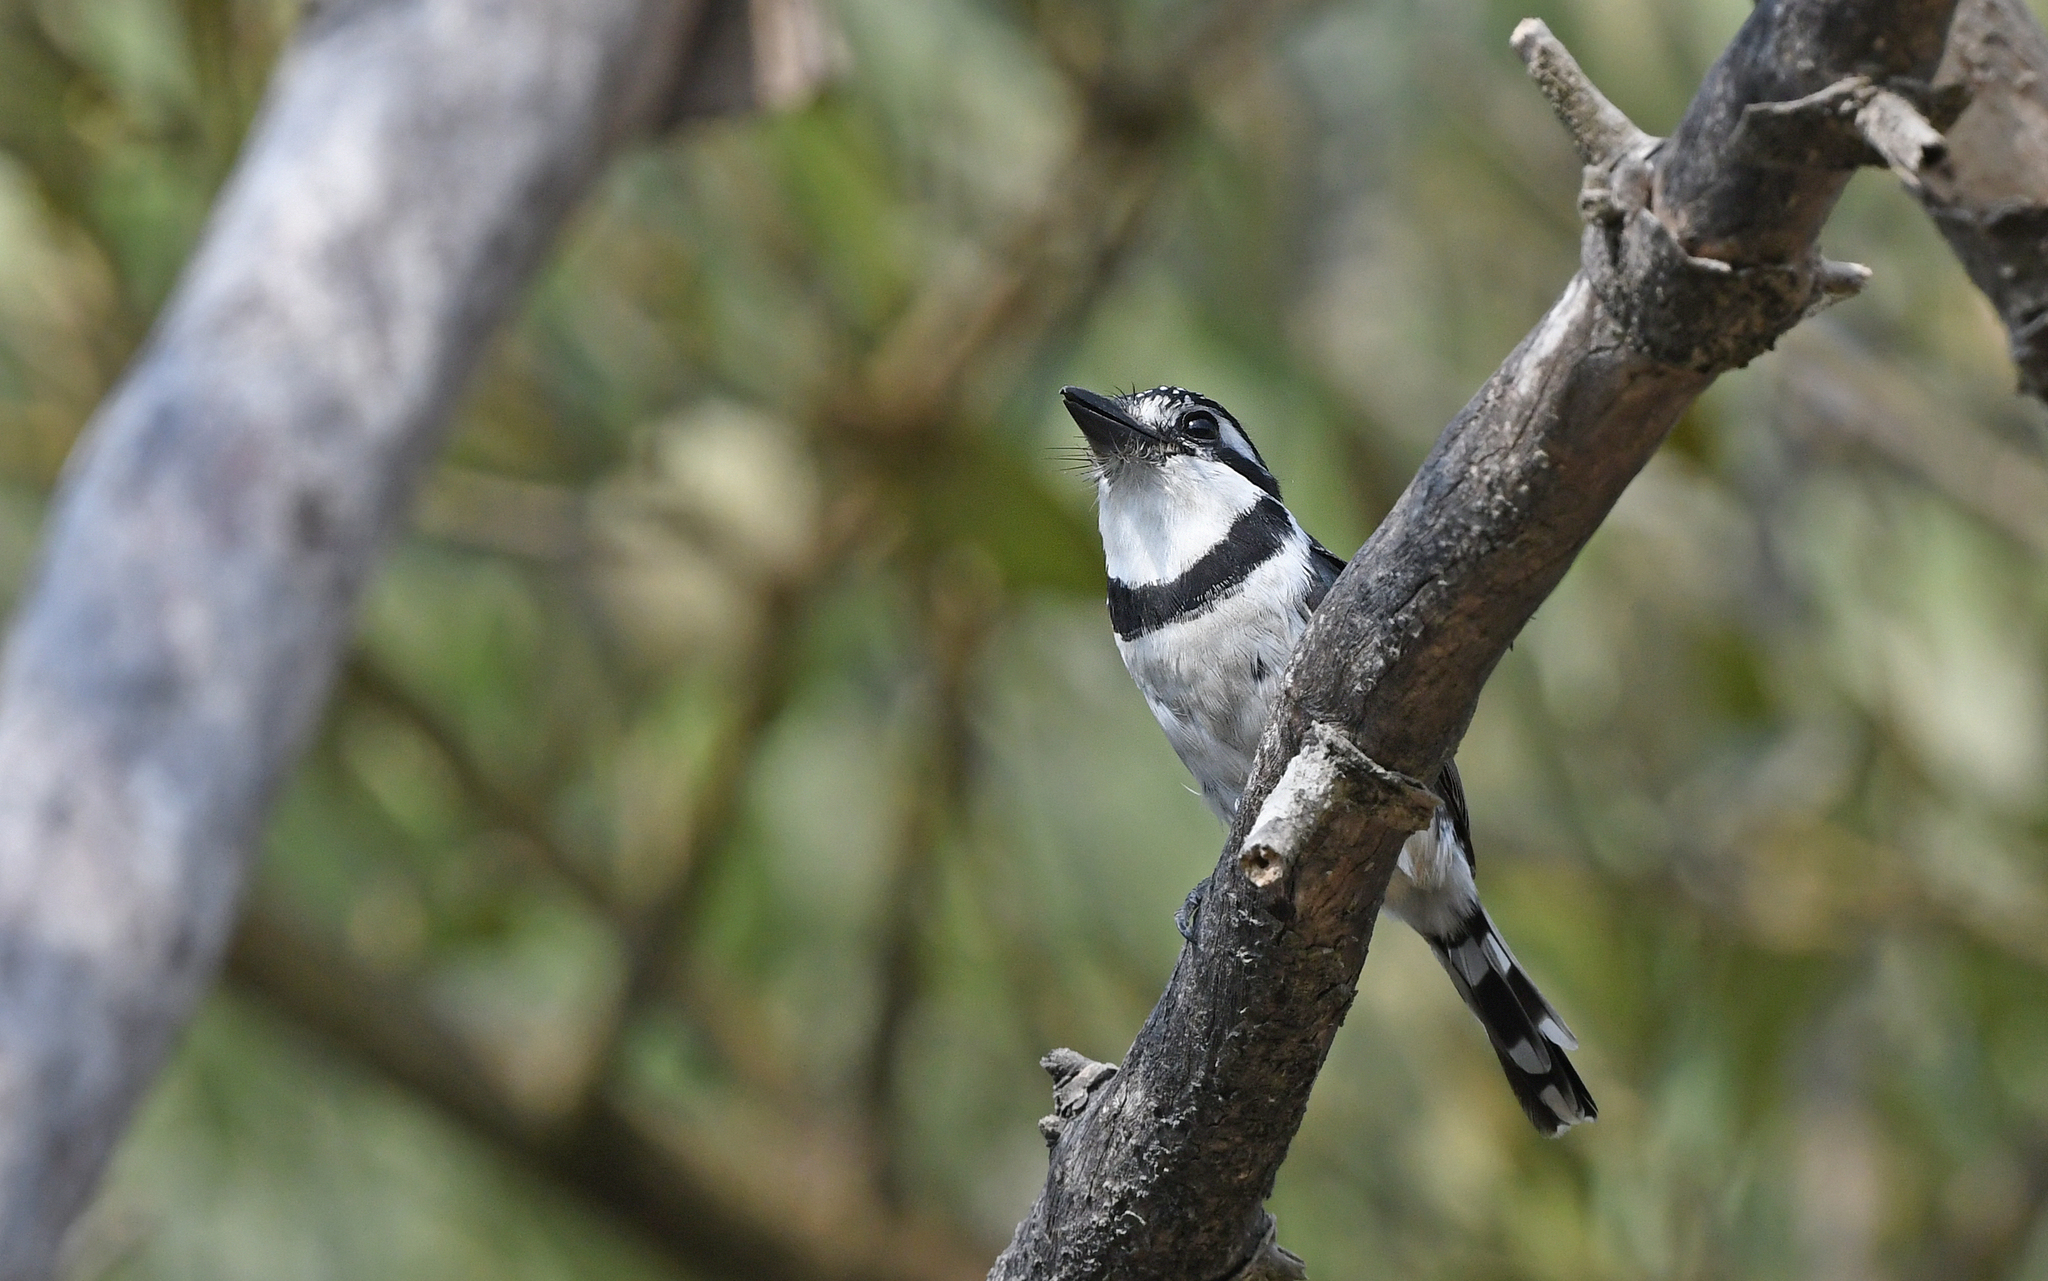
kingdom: Animalia
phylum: Chordata
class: Aves
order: Piciformes
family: Bucconidae
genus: Notharchus
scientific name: Notharchus tectus
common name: Pied puffbird
